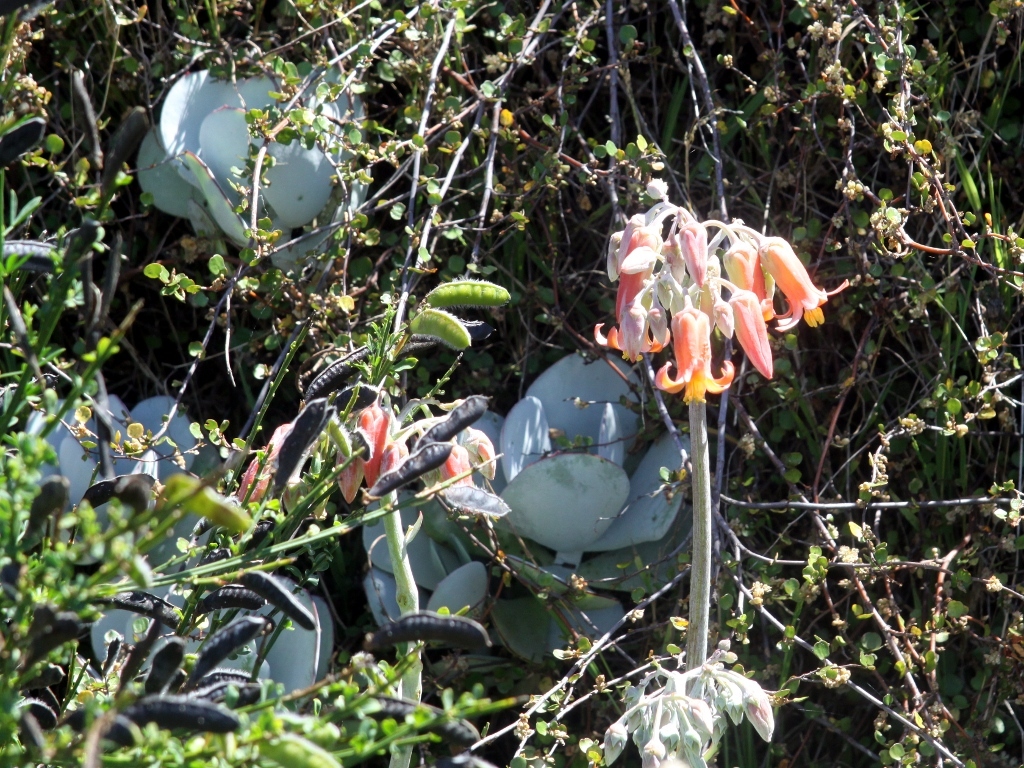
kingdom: Plantae
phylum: Tracheophyta
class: Magnoliopsida
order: Saxifragales
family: Crassulaceae
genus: Cotyledon
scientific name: Cotyledon orbiculata
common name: Pig's ear
